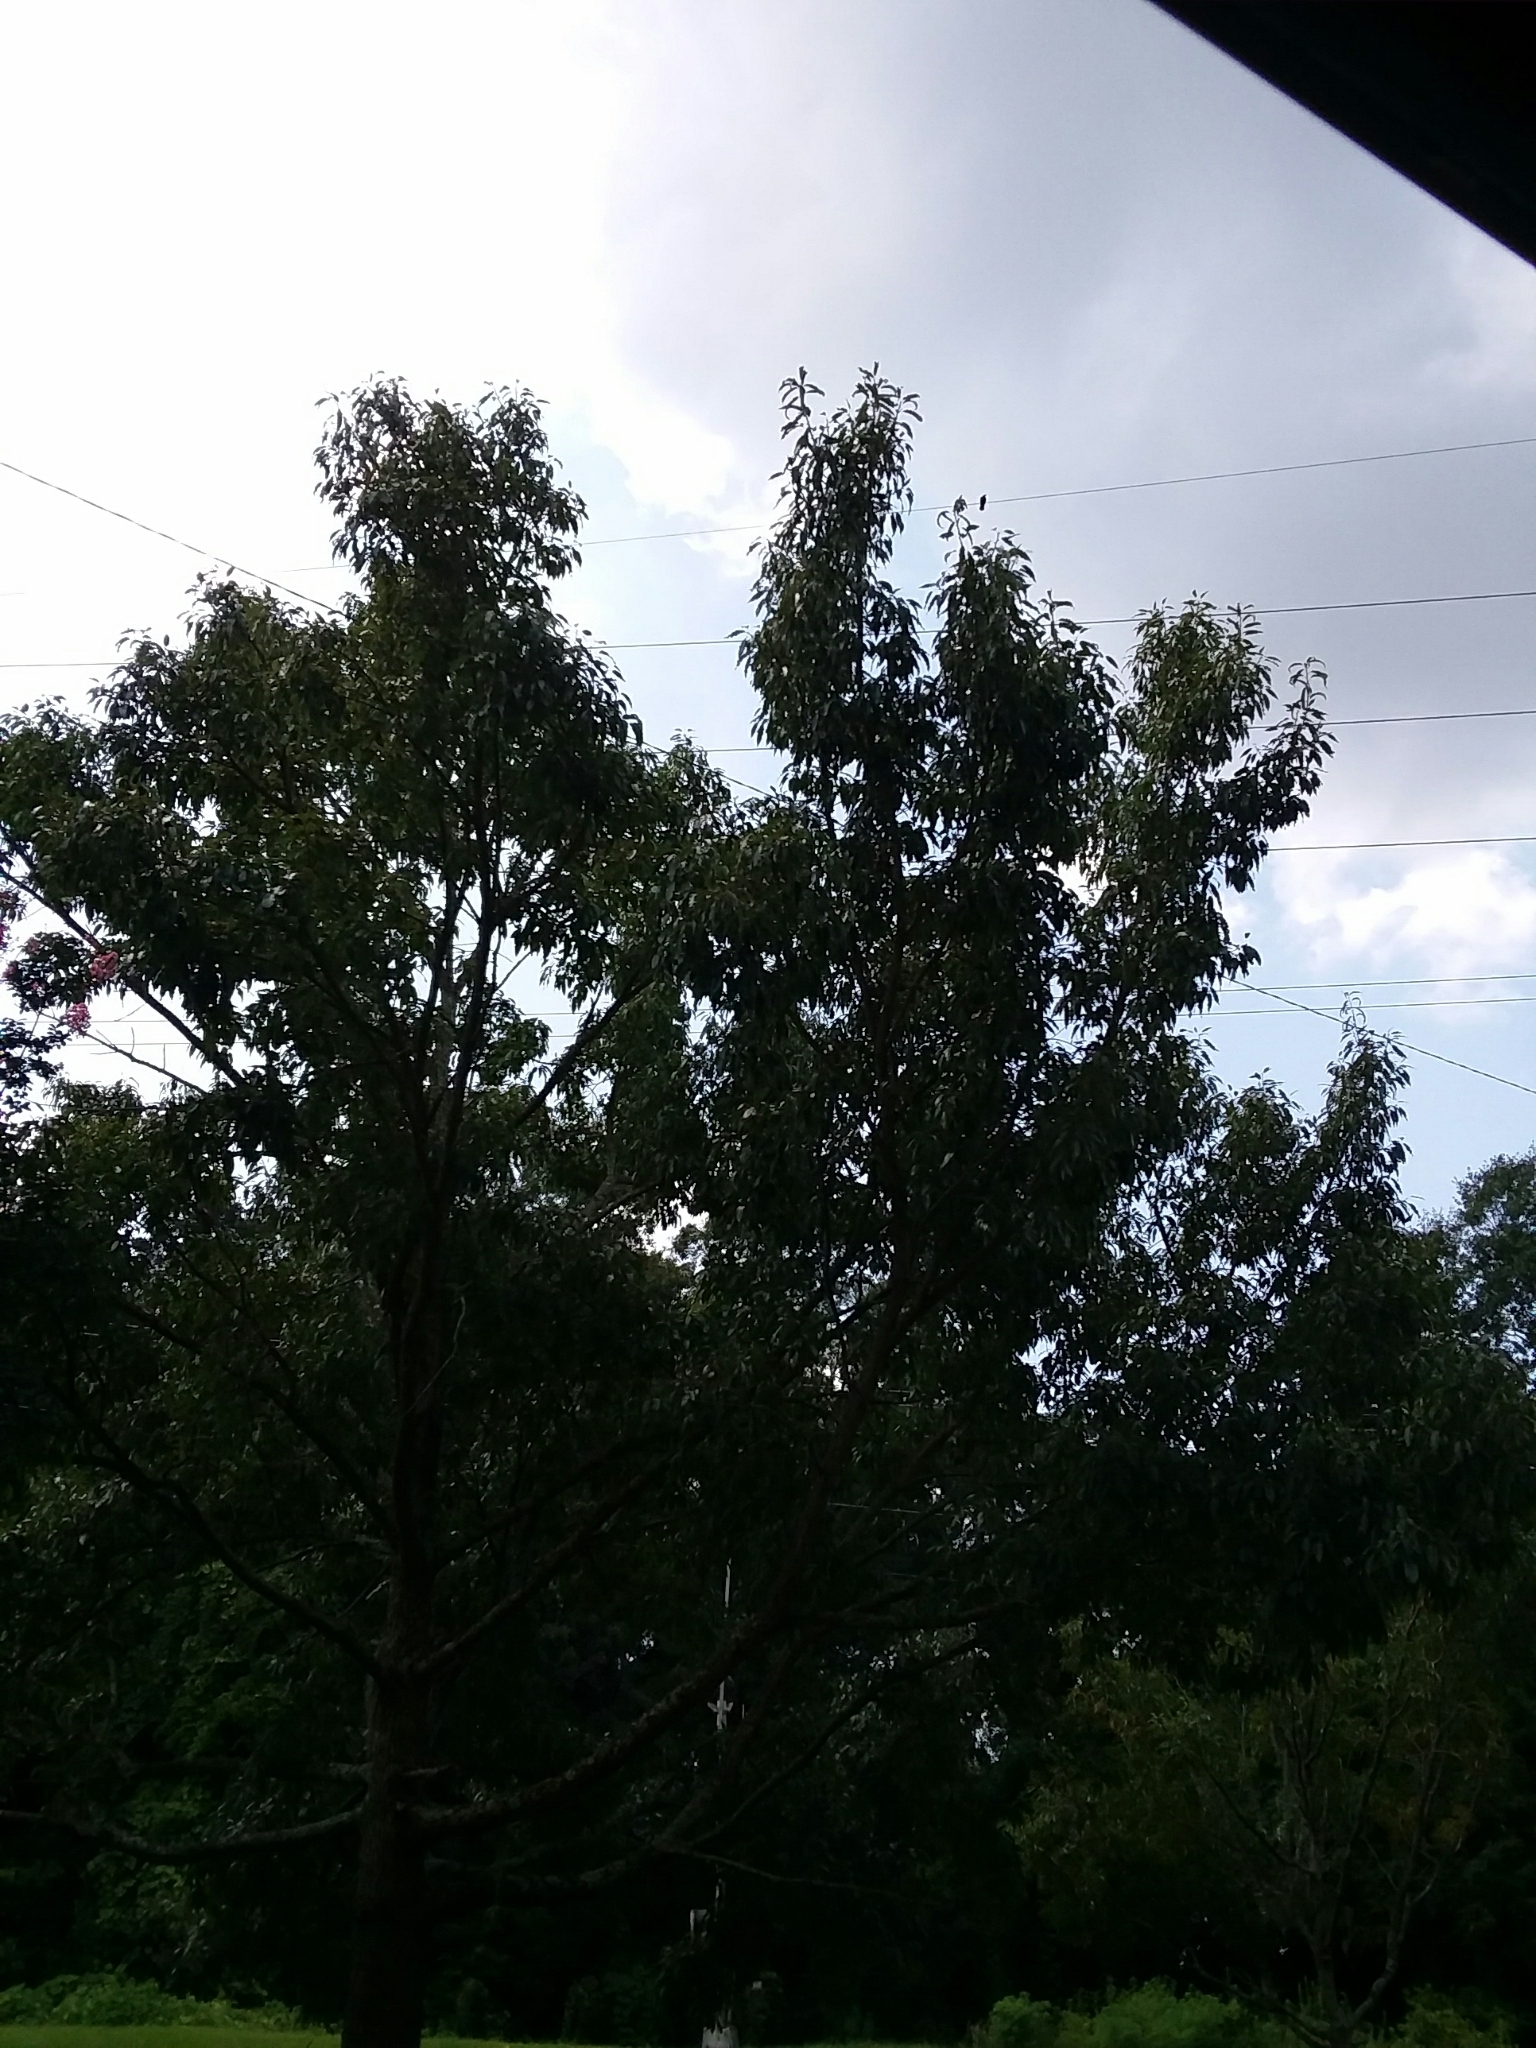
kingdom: Animalia
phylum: Chordata
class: Aves
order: Passeriformes
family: Corvidae
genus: Corvus
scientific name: Corvus
